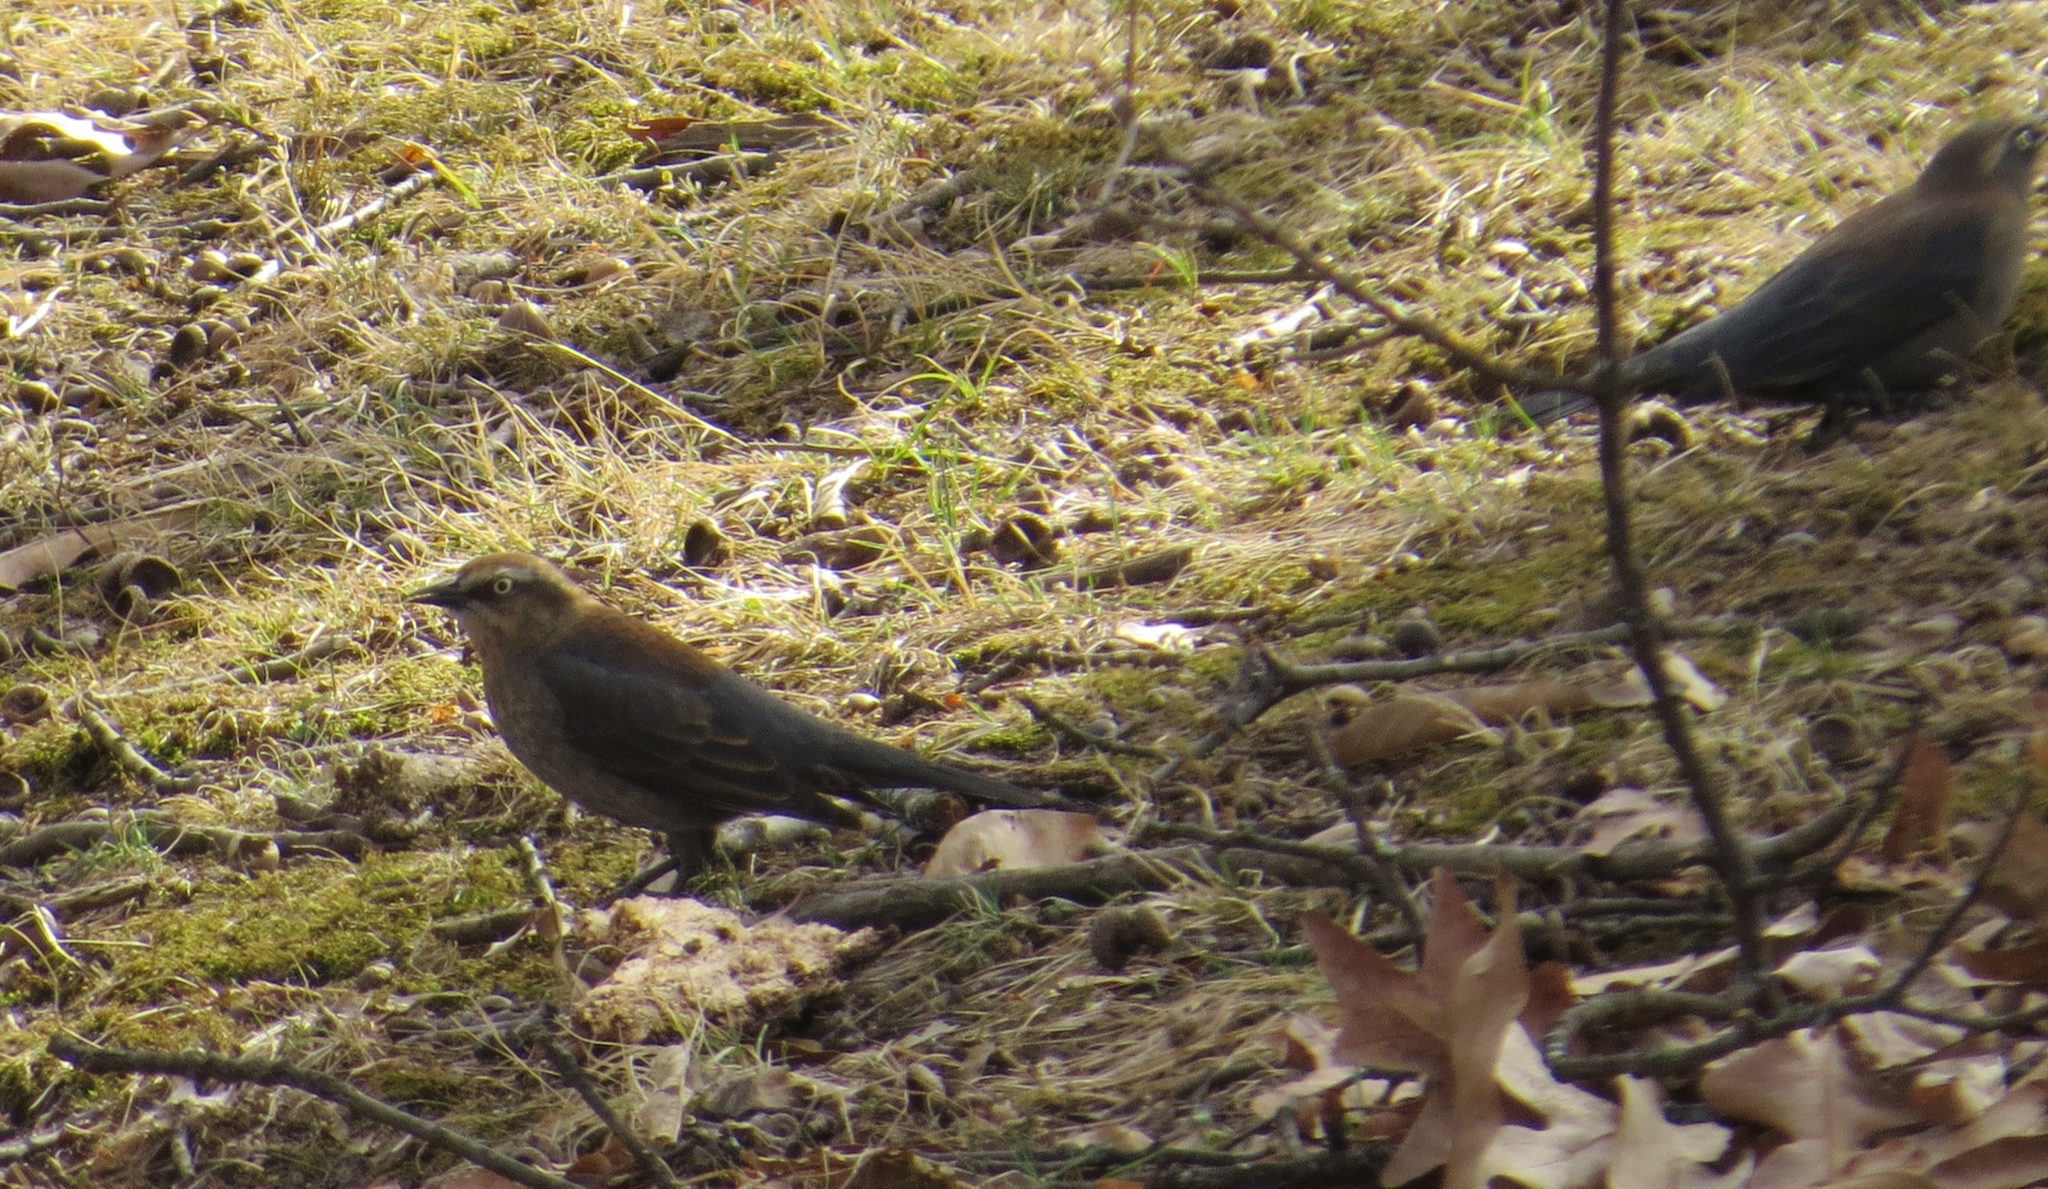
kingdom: Animalia
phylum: Chordata
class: Aves
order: Passeriformes
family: Icteridae
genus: Euphagus
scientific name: Euphagus carolinus
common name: Rusty blackbird
